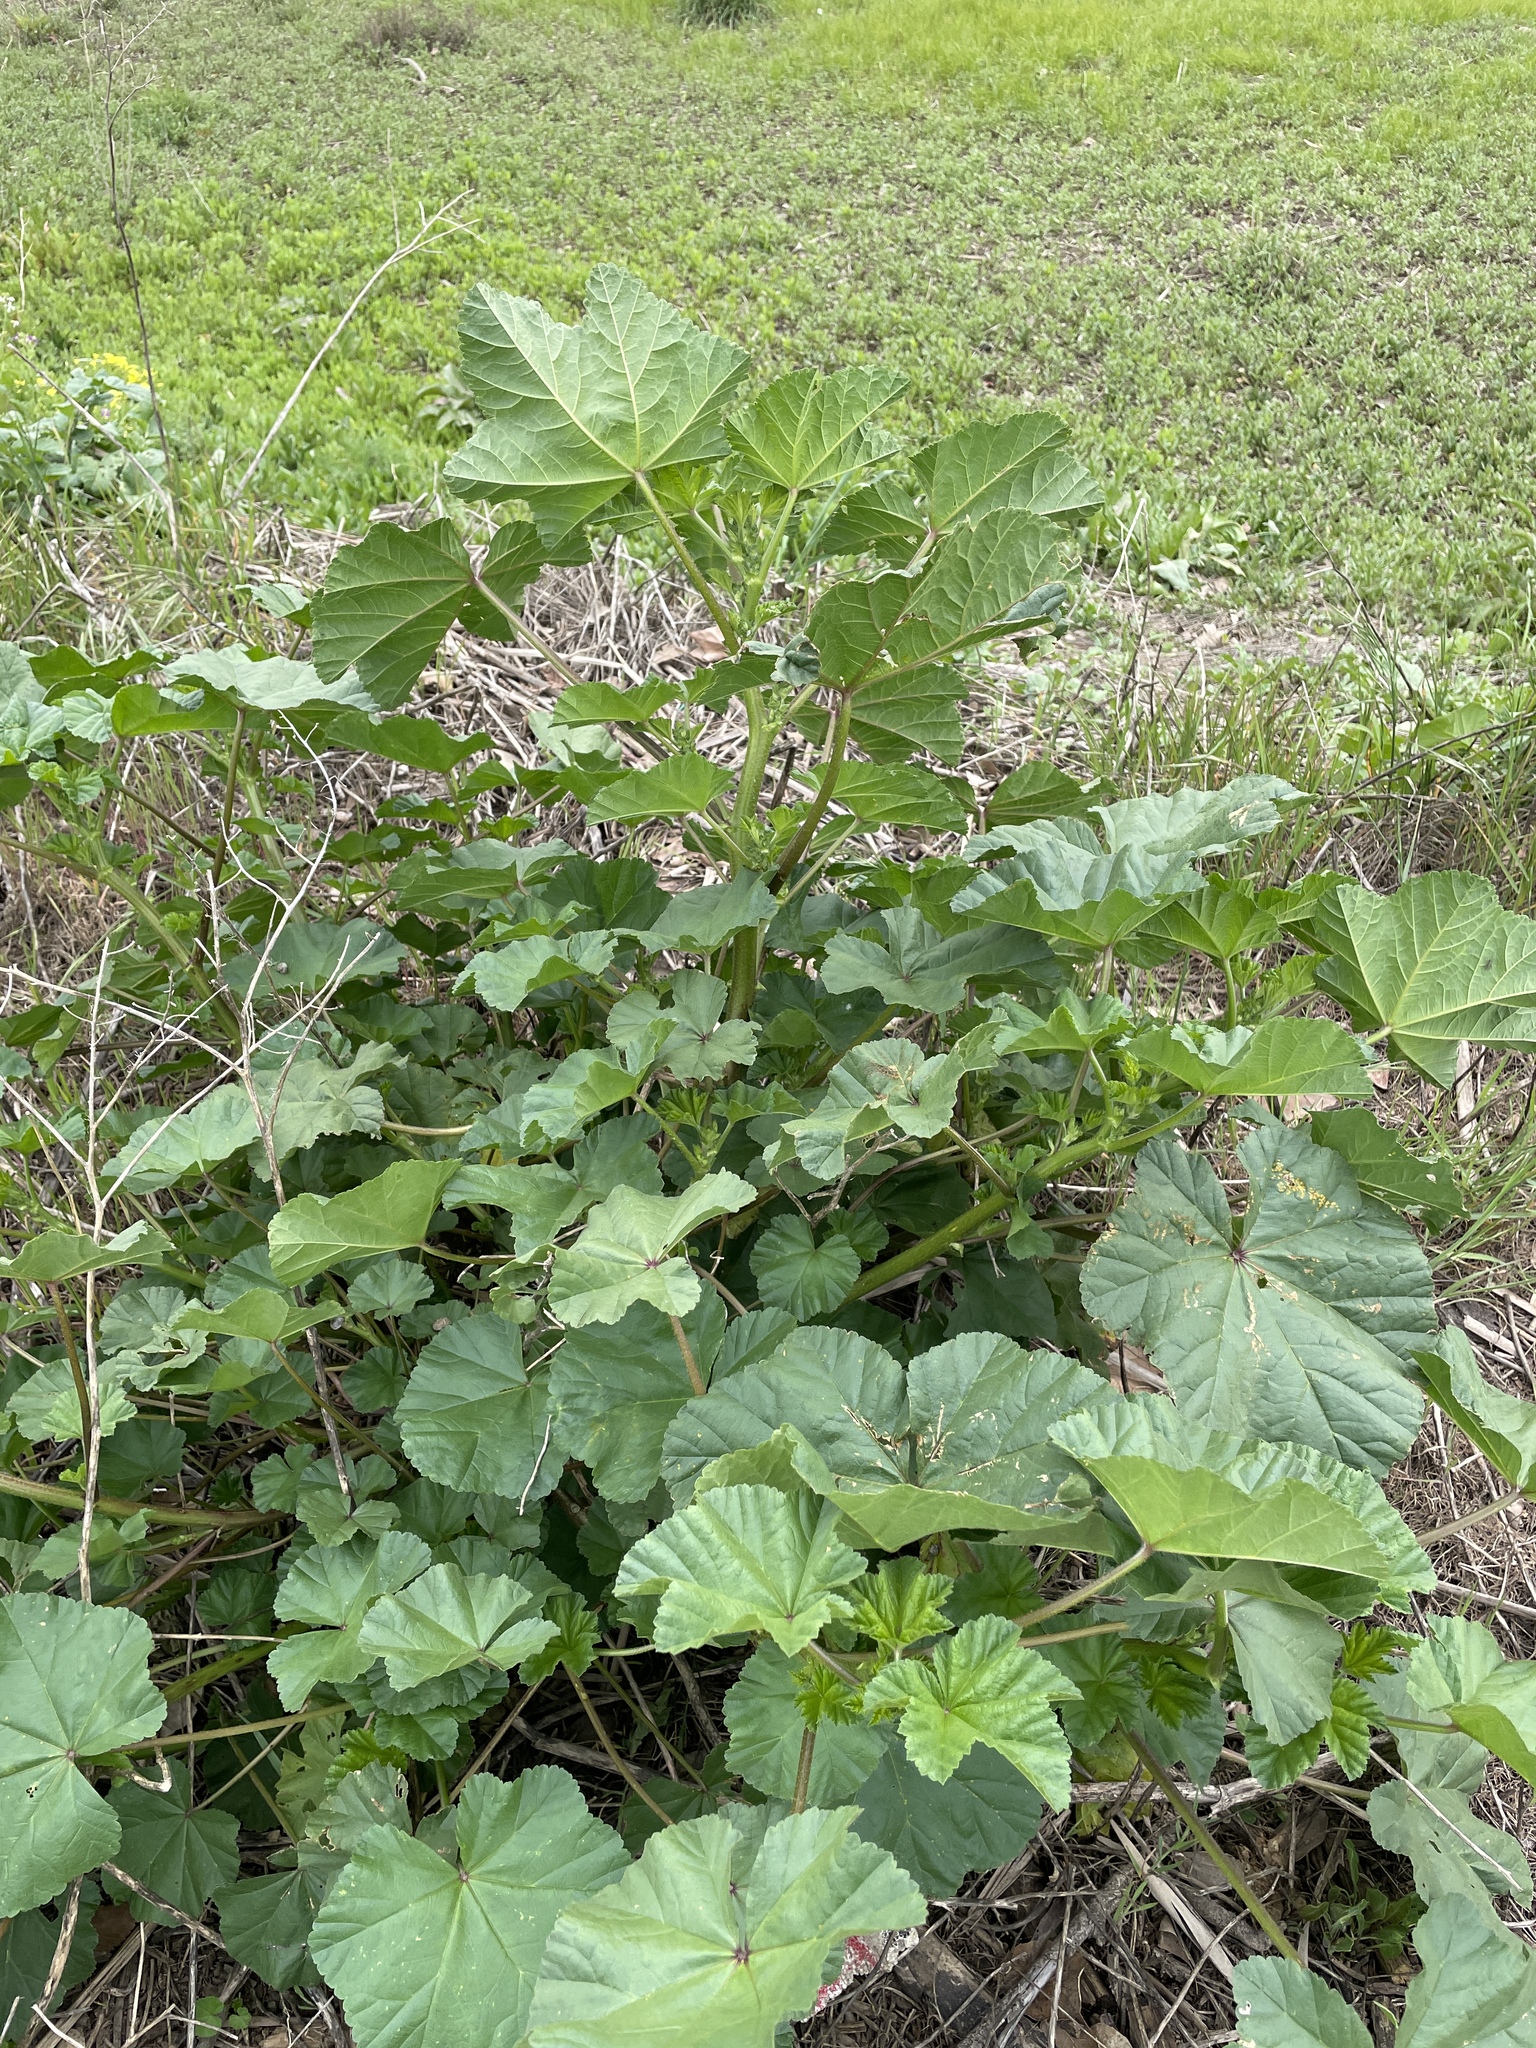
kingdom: Plantae
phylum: Tracheophyta
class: Magnoliopsida
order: Malvales
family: Malvaceae
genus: Malva
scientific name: Malva
